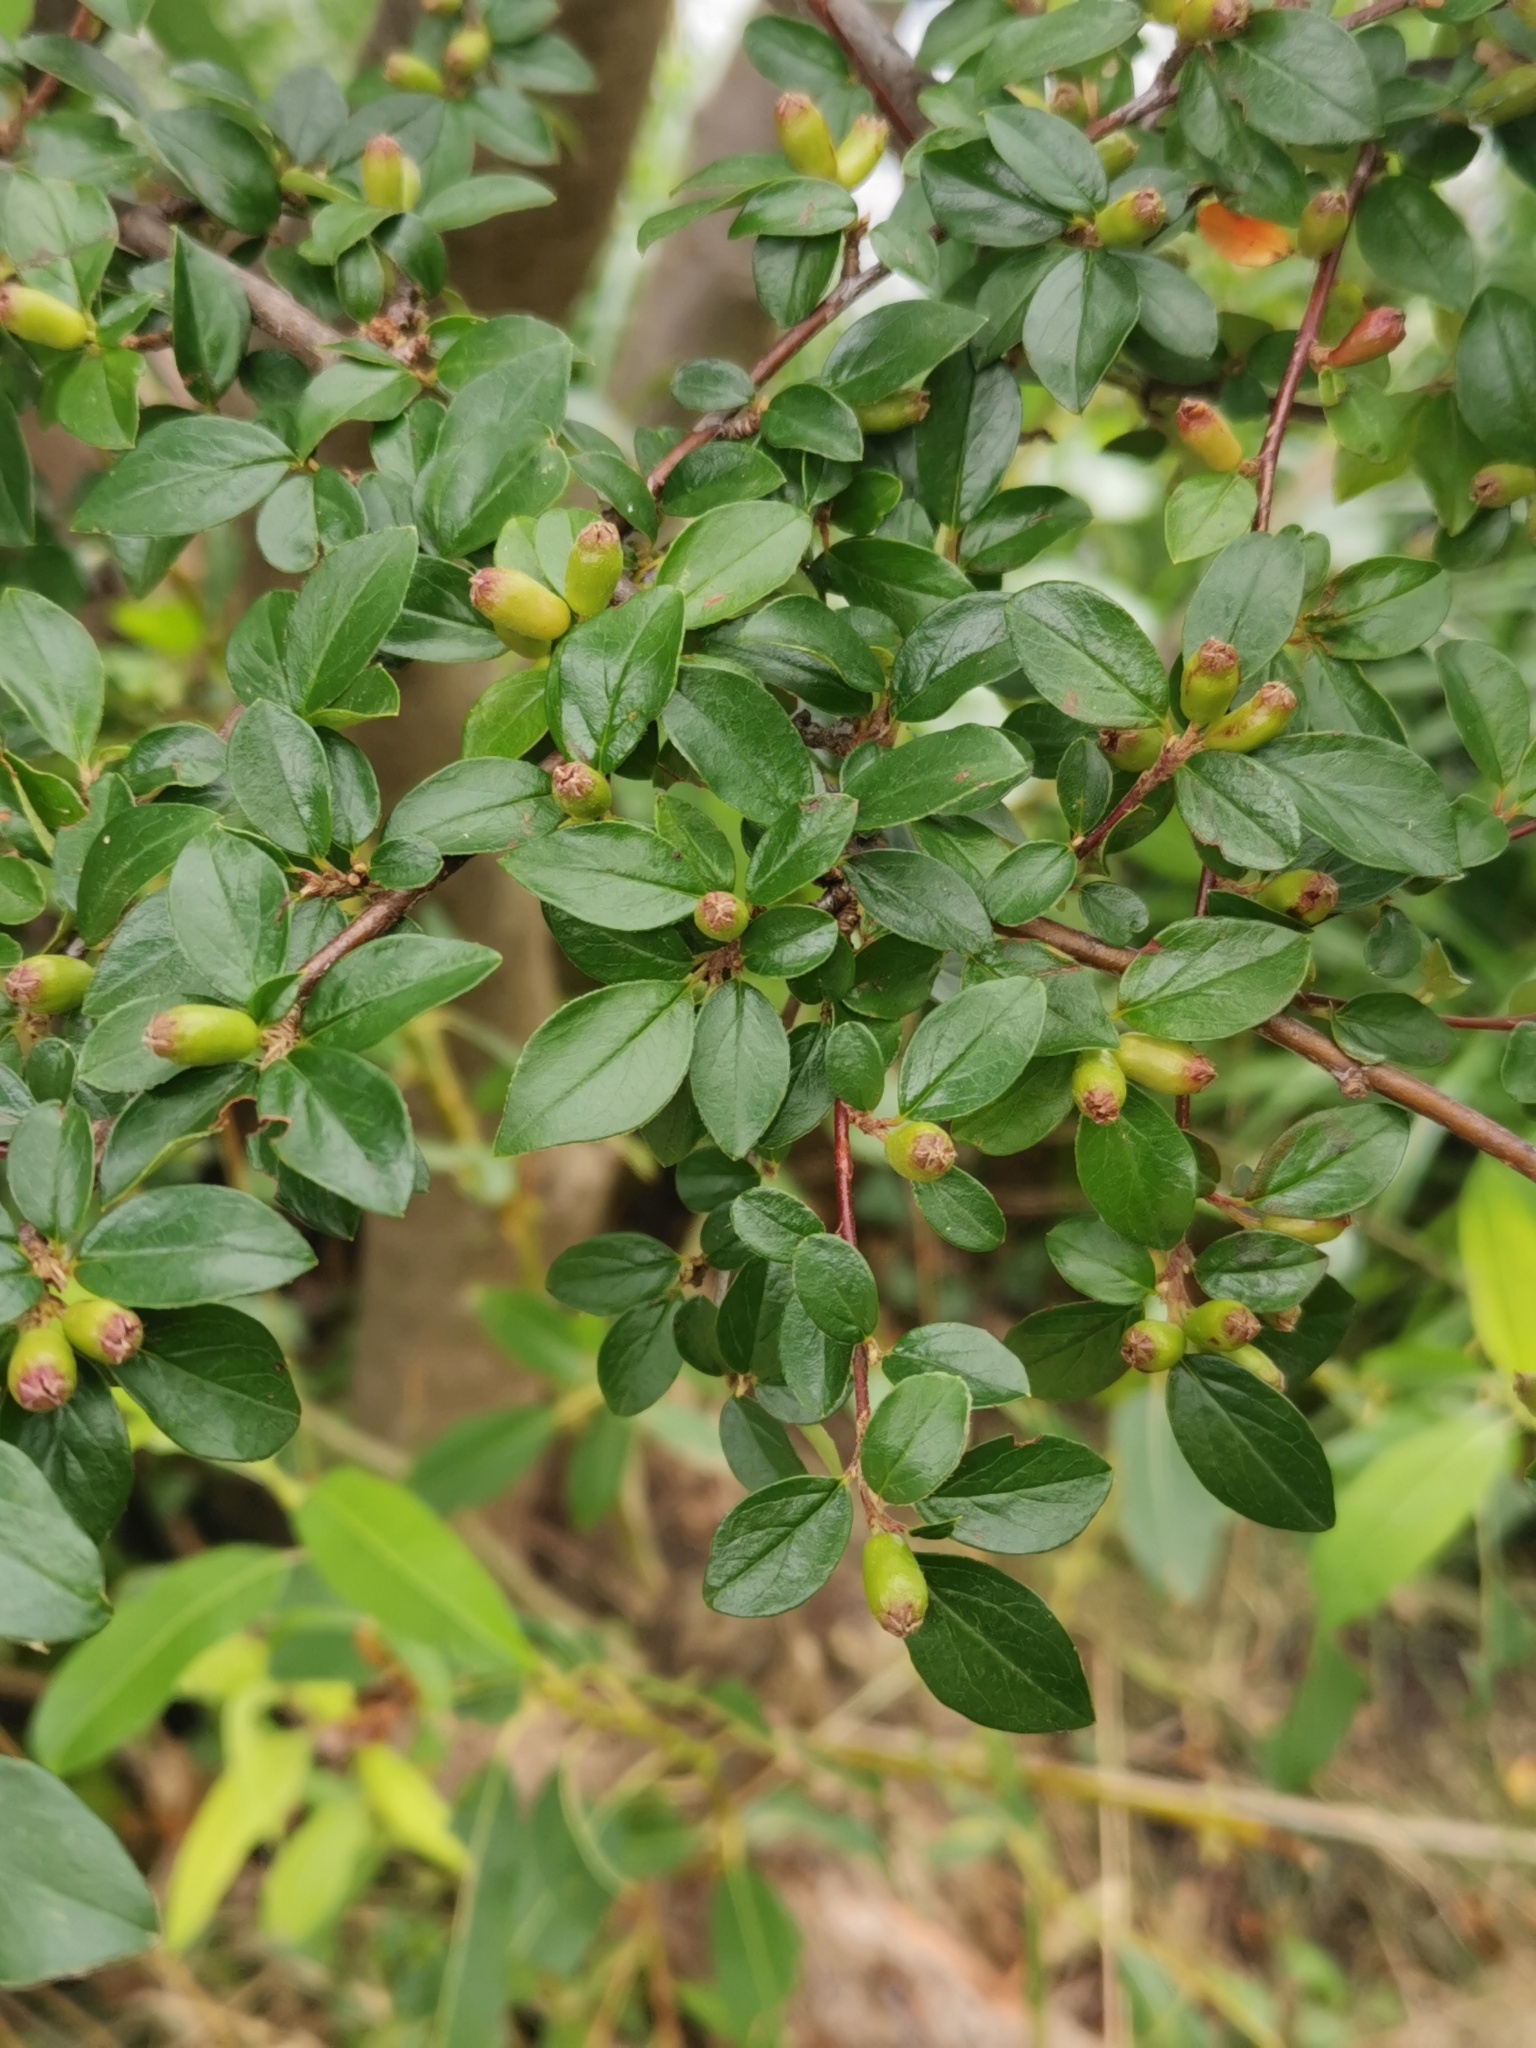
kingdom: Plantae
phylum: Tracheophyta
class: Magnoliopsida
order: Rosales
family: Rosaceae
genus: Cotoneaster
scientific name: Cotoneaster divaricatus
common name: Spreading cotoneaster
